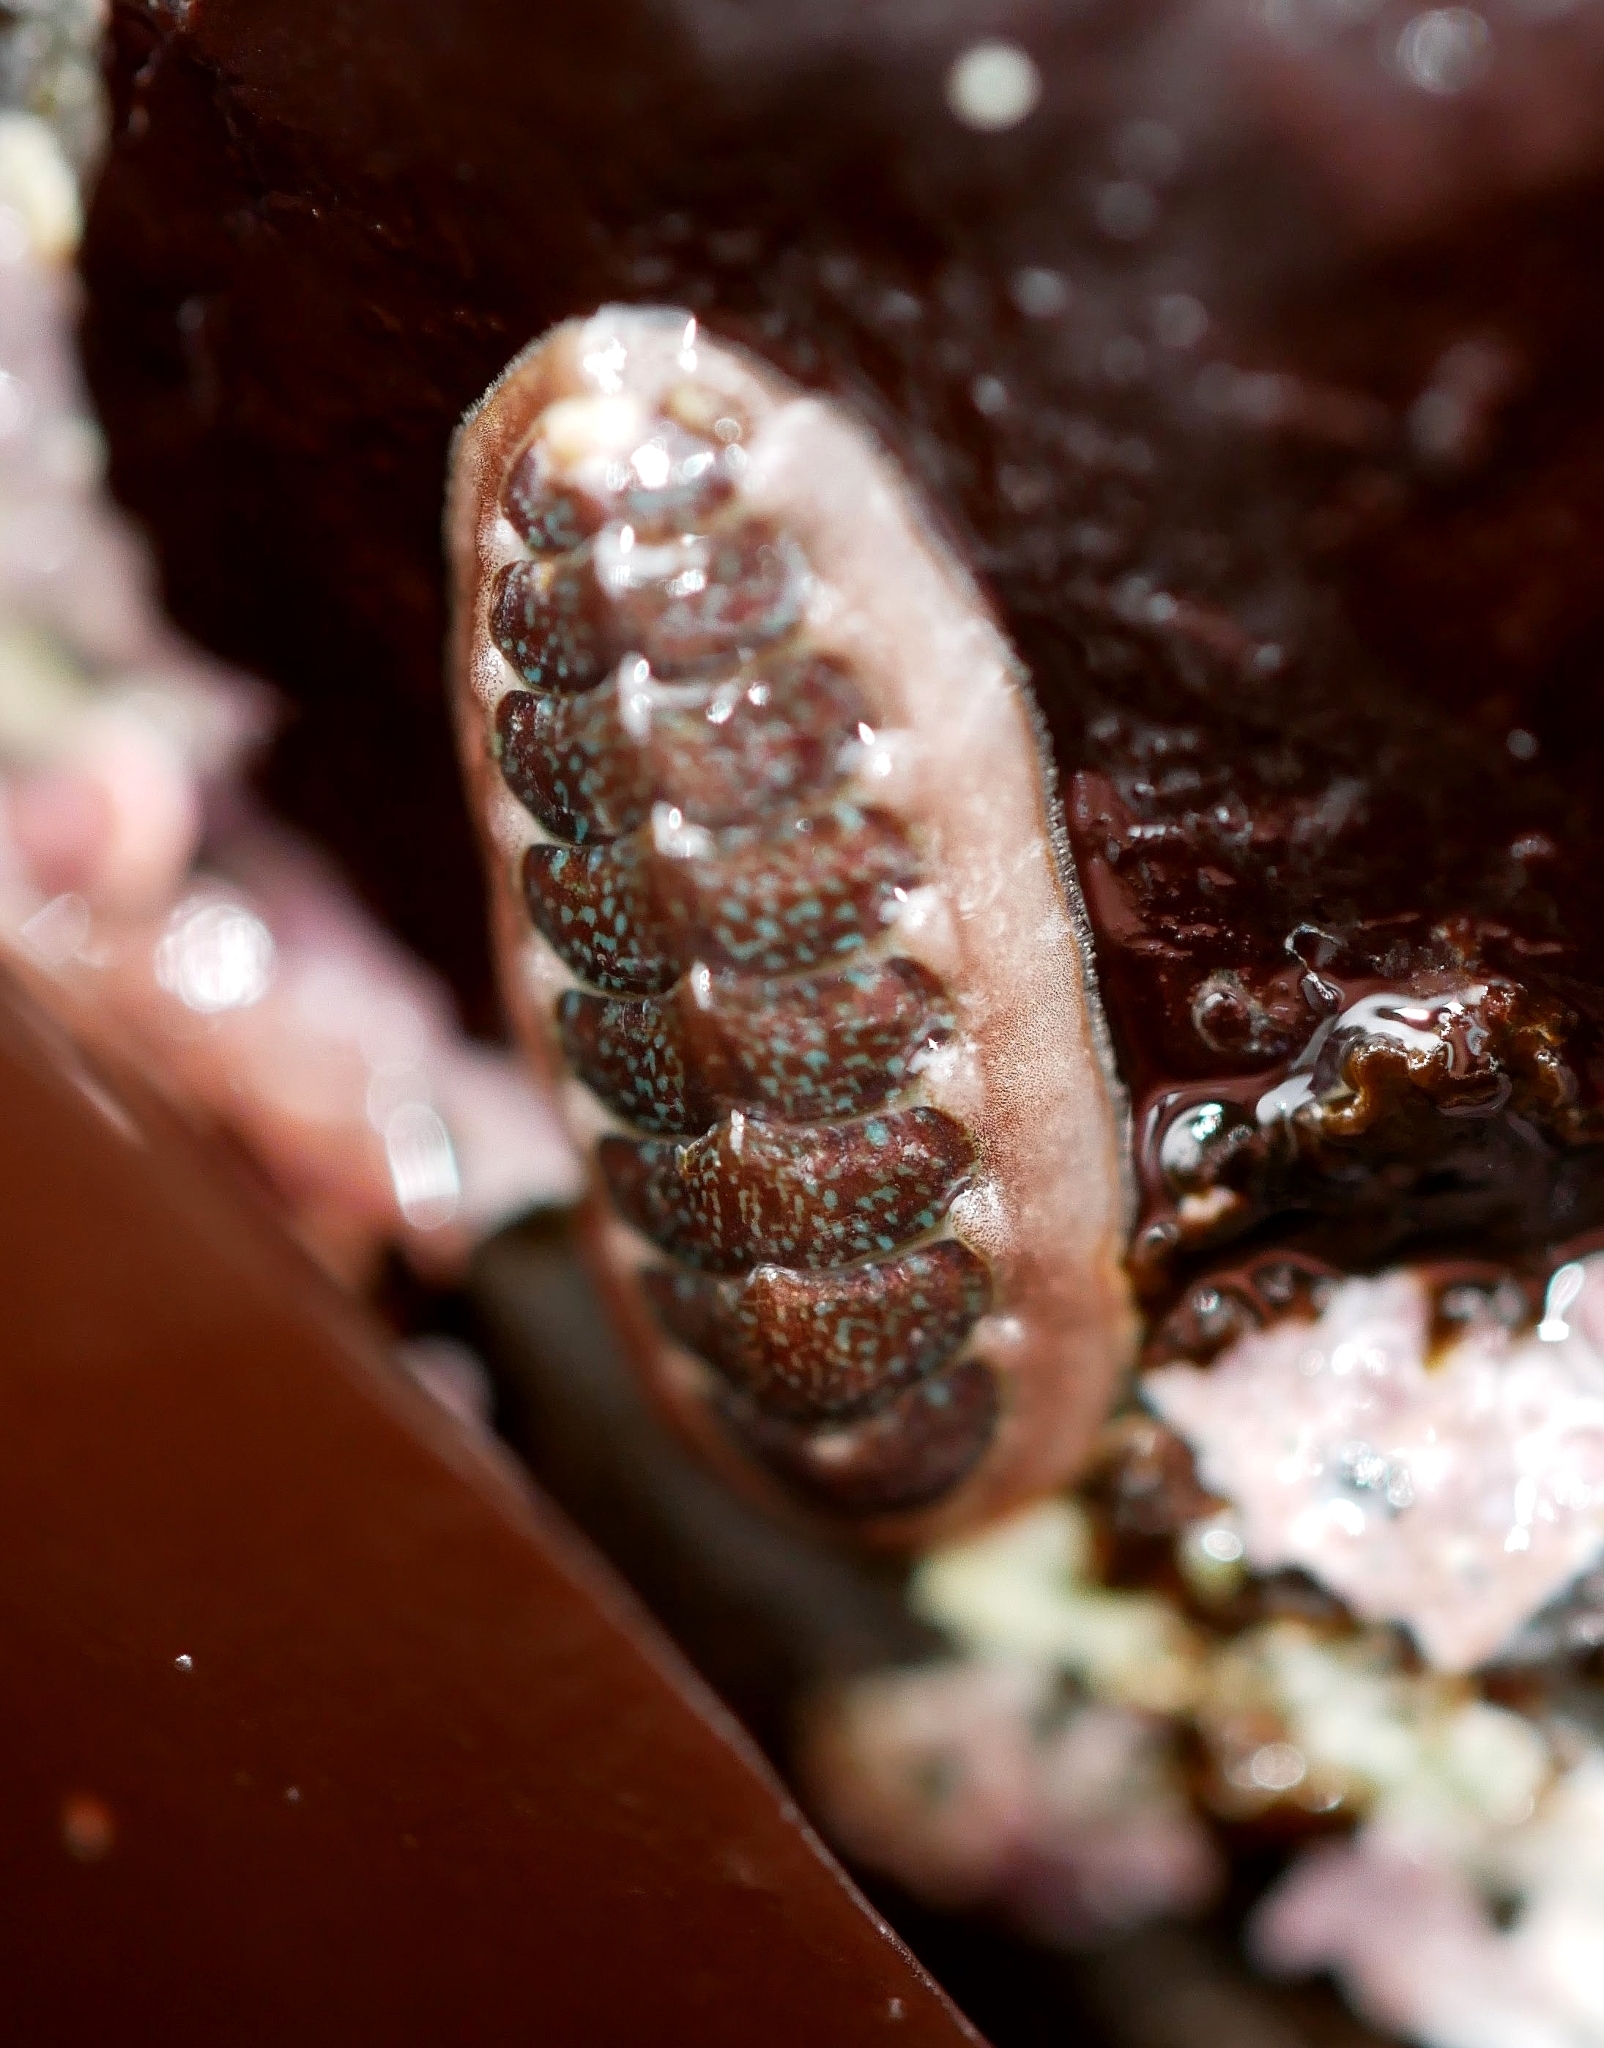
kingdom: Animalia
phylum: Mollusca
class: Polyplacophora
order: Chitonida
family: Tonicellidae
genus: Cyanoplax
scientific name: Cyanoplax dentiens
